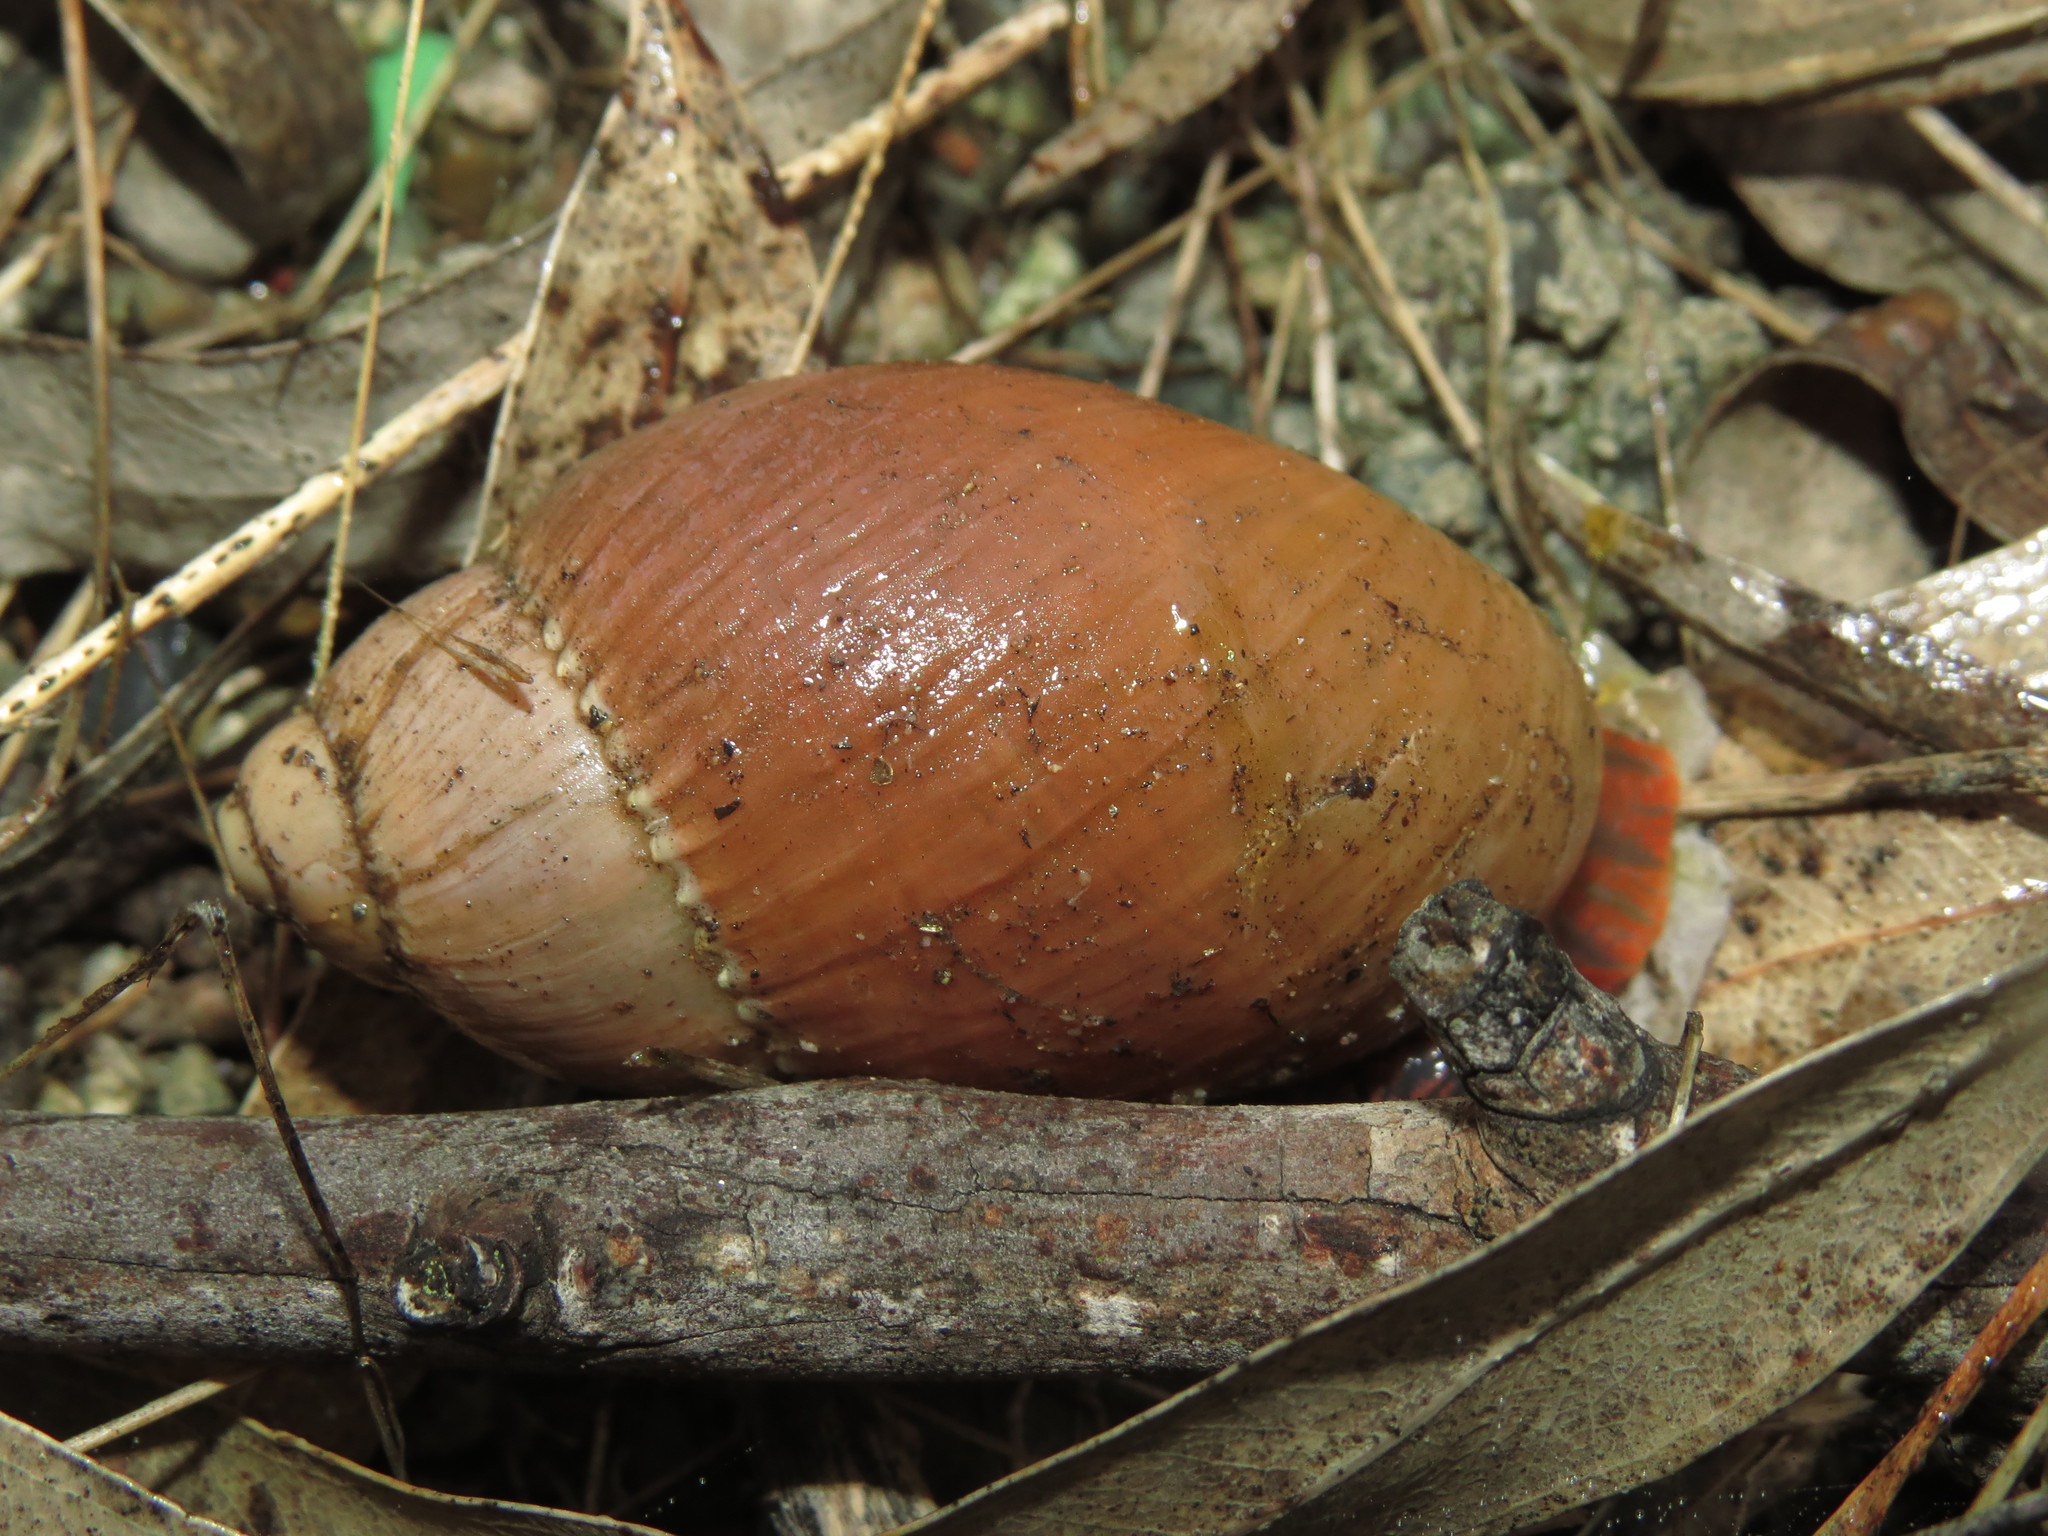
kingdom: Animalia
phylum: Mollusca
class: Gastropoda
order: Stylommatophora
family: Strophocheilidae
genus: Chiliborus
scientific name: Chiliborus rosaceus
